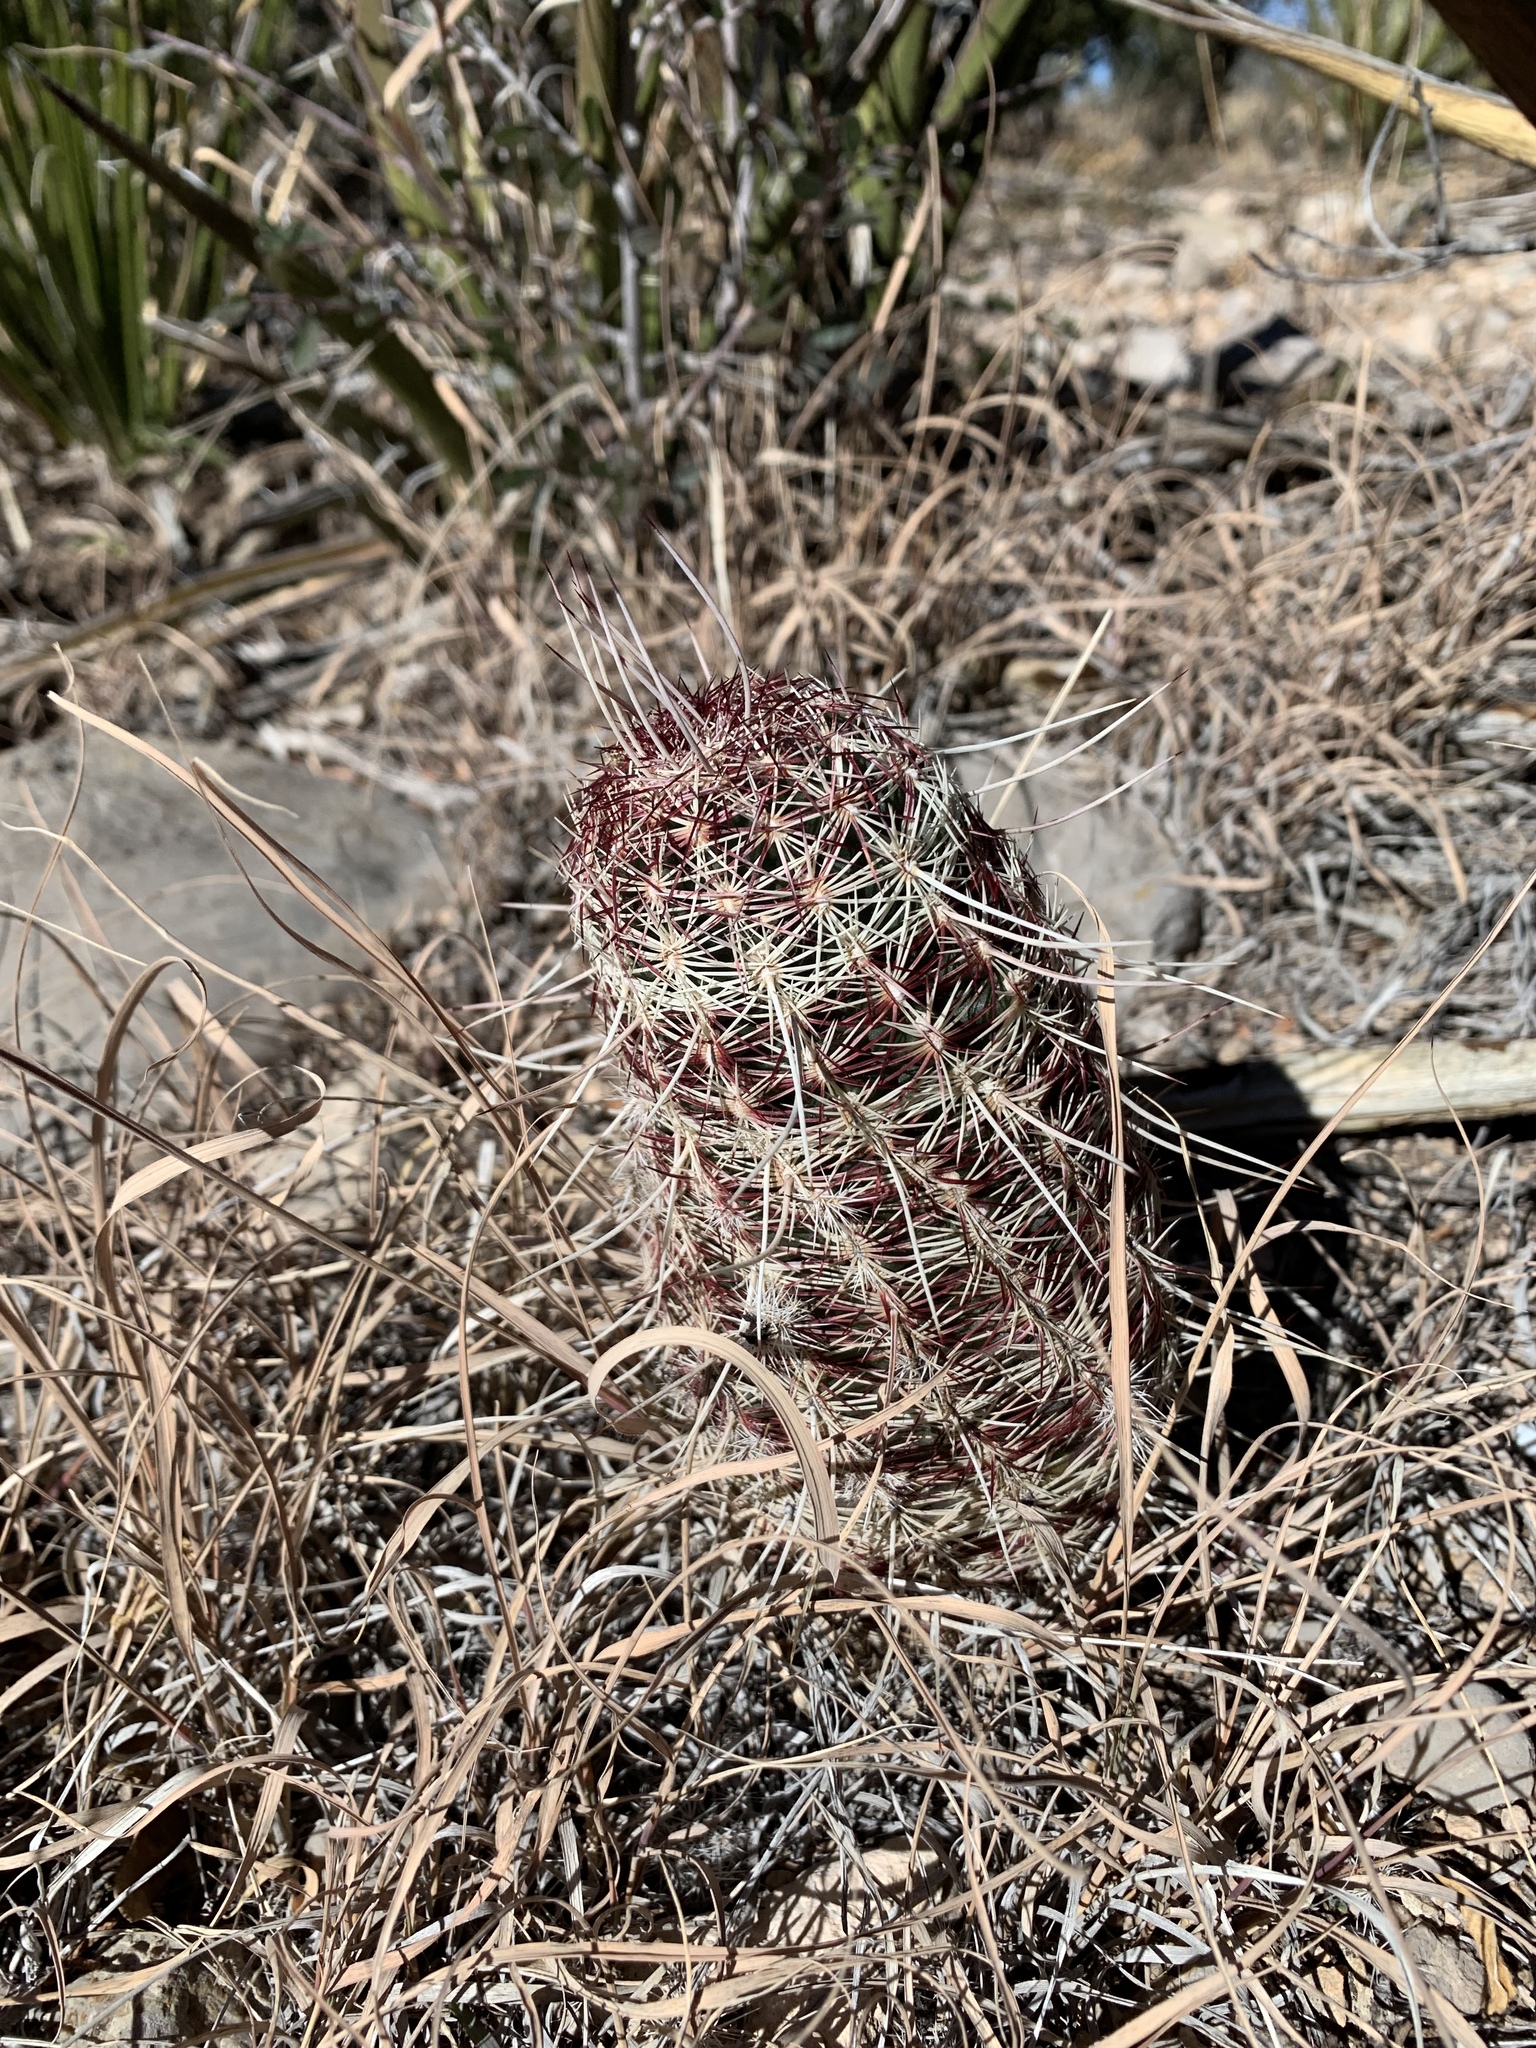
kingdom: Plantae
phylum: Tracheophyta
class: Magnoliopsida
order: Caryophyllales
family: Cactaceae
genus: Echinocereus
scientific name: Echinocereus viridiflorus
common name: Nylon hedgehog cactus
